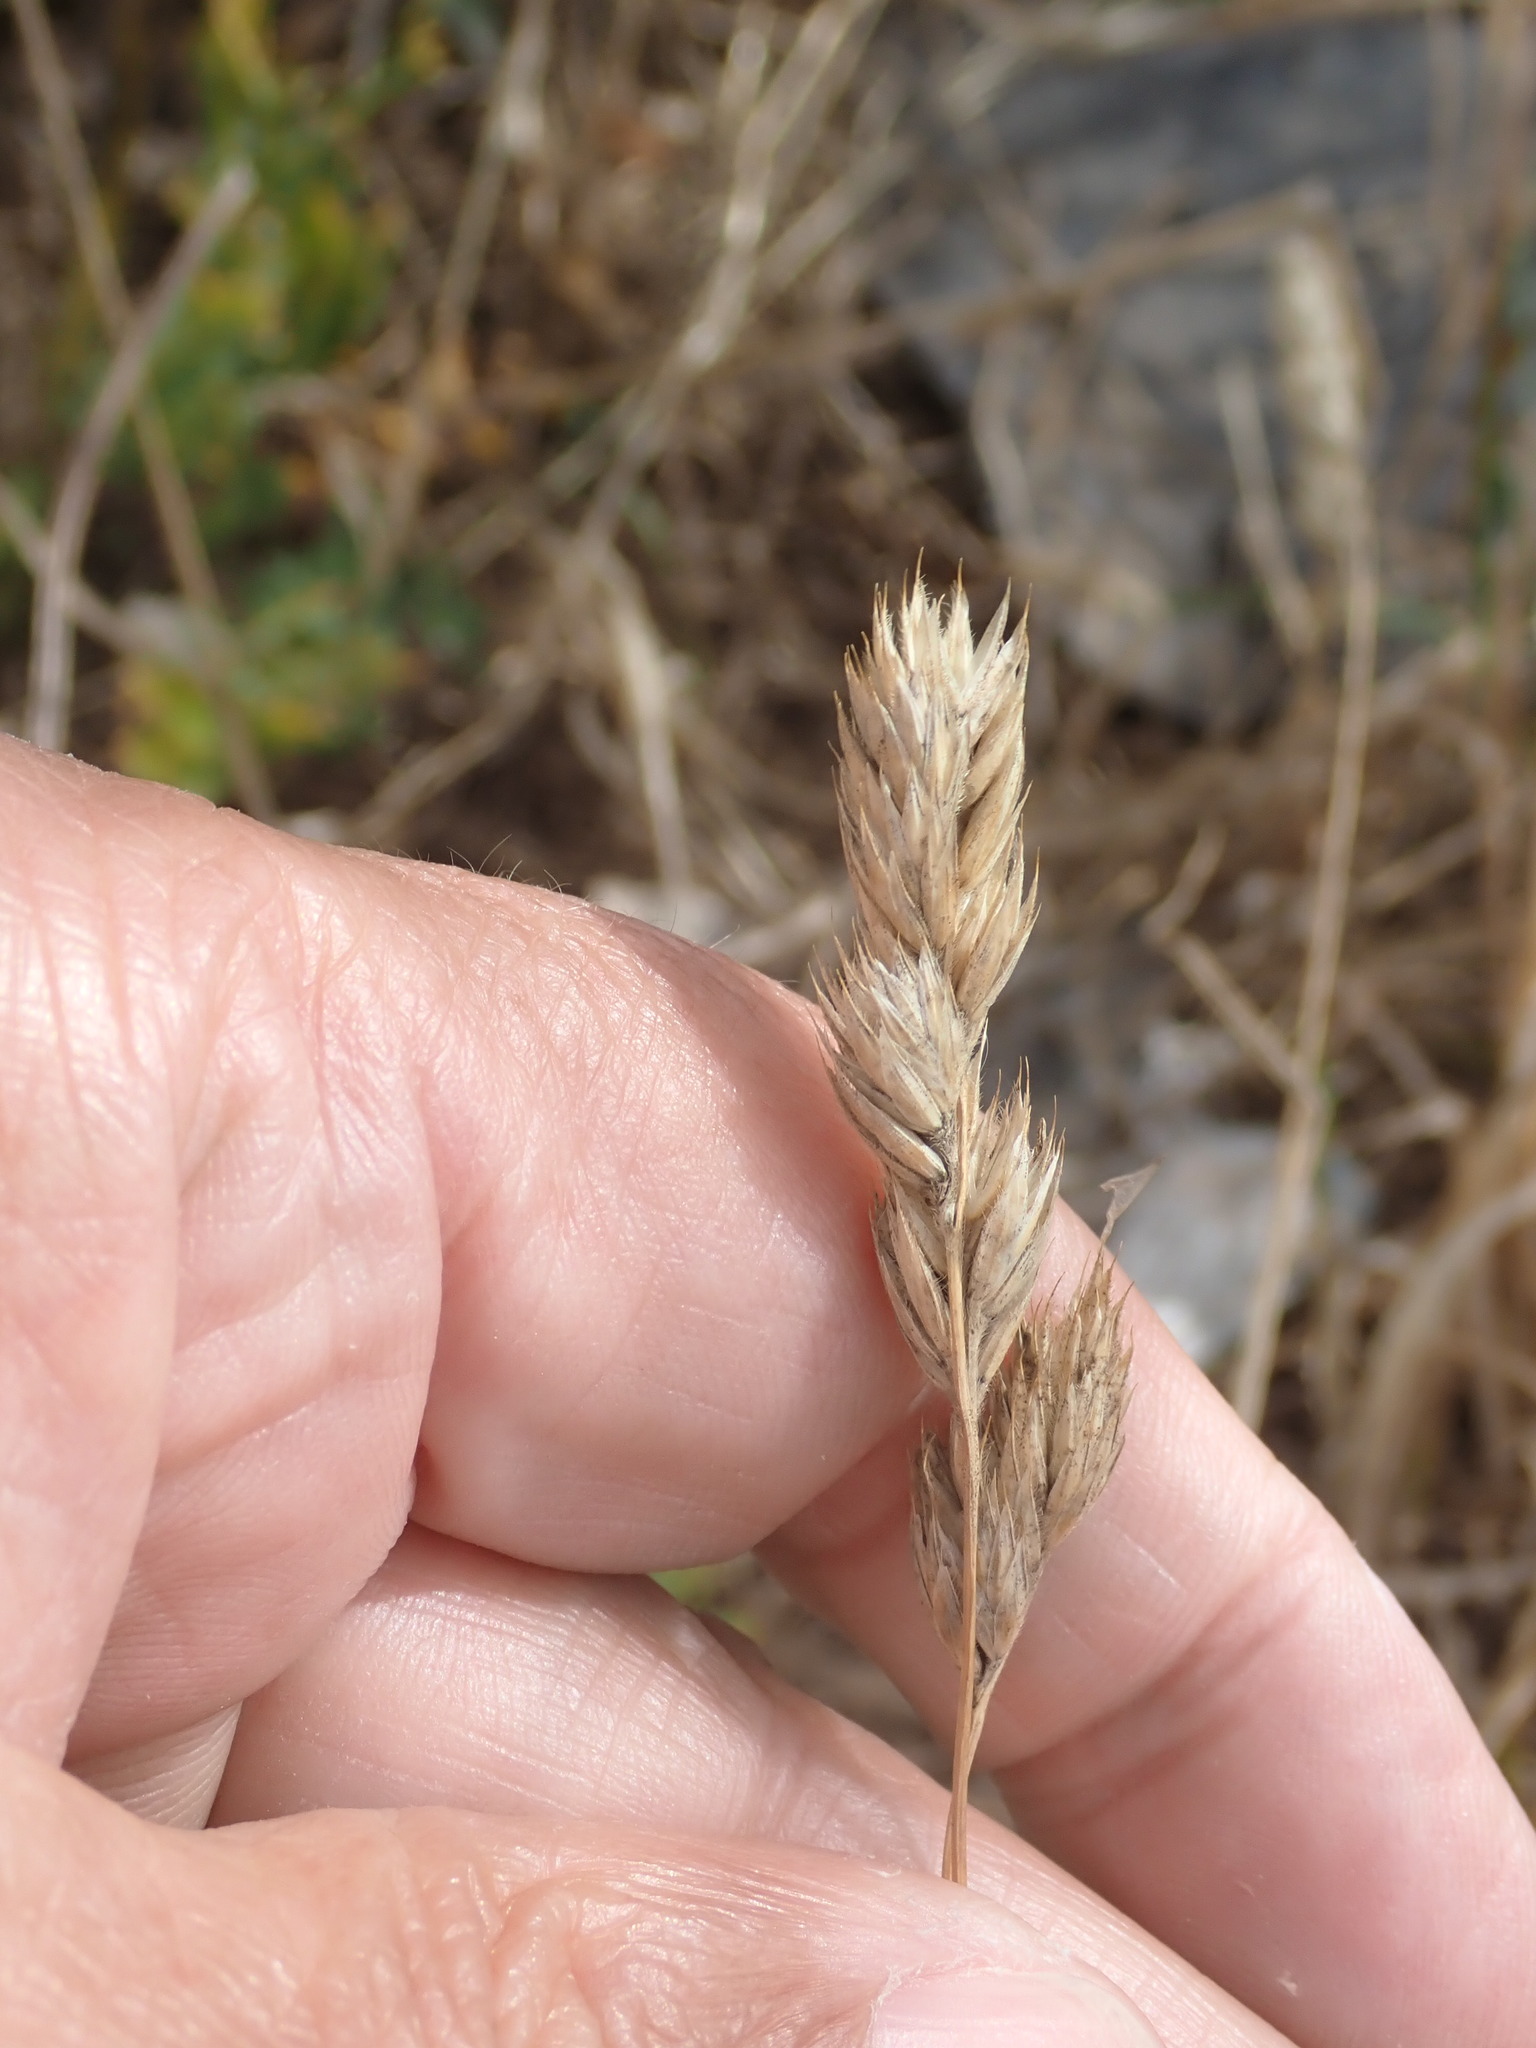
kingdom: Plantae
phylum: Tracheophyta
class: Liliopsida
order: Poales
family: Poaceae
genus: Dactylis
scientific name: Dactylis glomerata
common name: Orchardgrass
